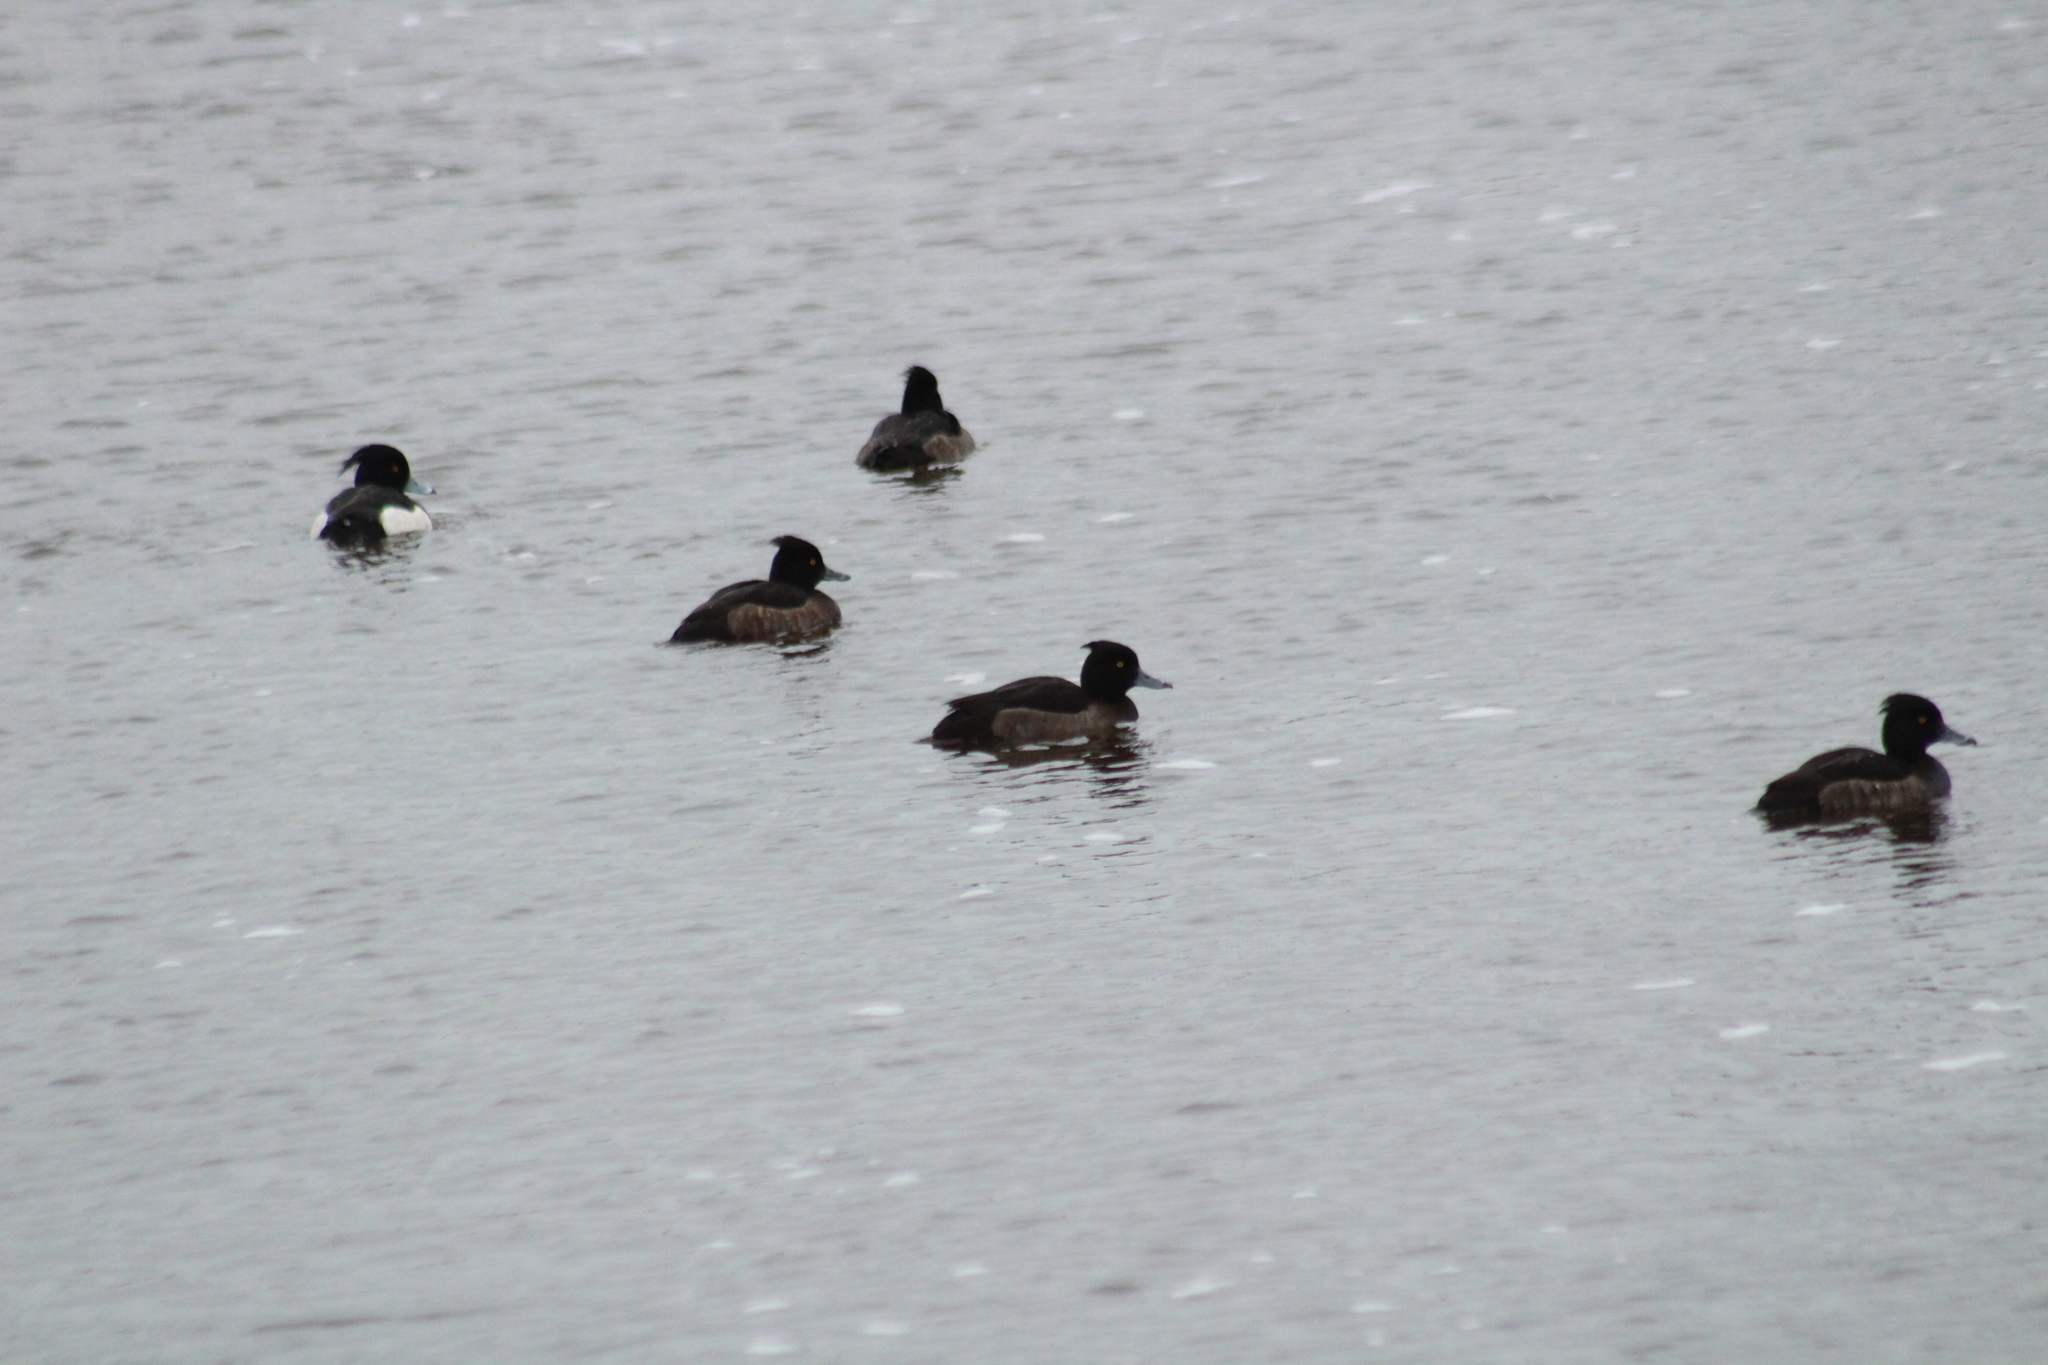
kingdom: Animalia
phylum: Chordata
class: Aves
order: Anseriformes
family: Anatidae
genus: Aythya
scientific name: Aythya fuligula
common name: Tufted duck
